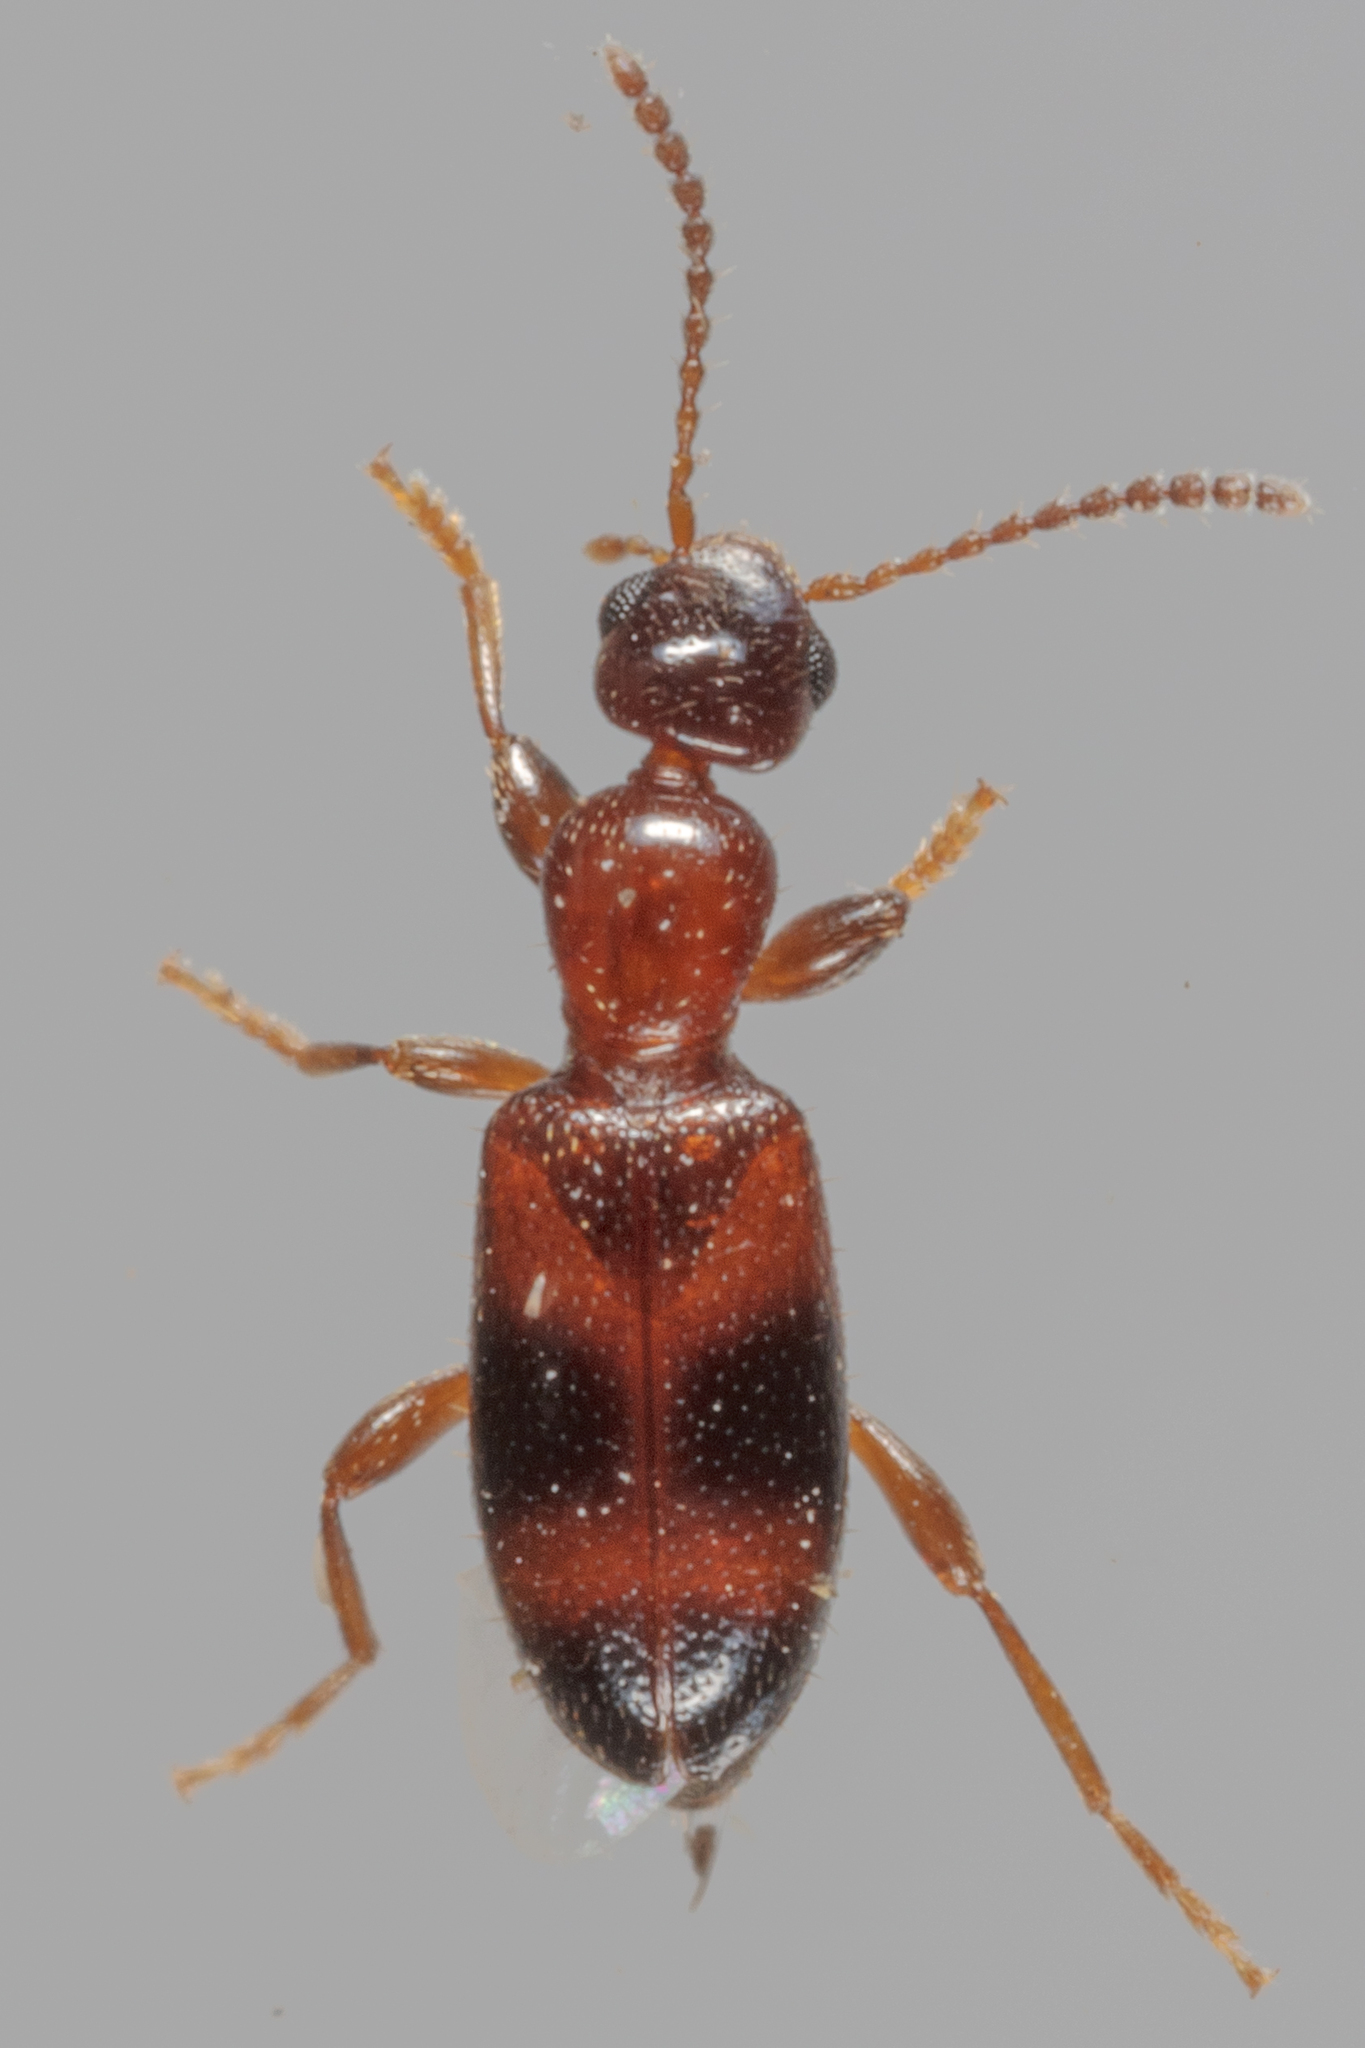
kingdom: Animalia
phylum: Arthropoda
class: Insecta
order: Coleoptera
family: Anthicidae
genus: Vacusus
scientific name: Vacusus vicinus
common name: Antlike flower beetle
